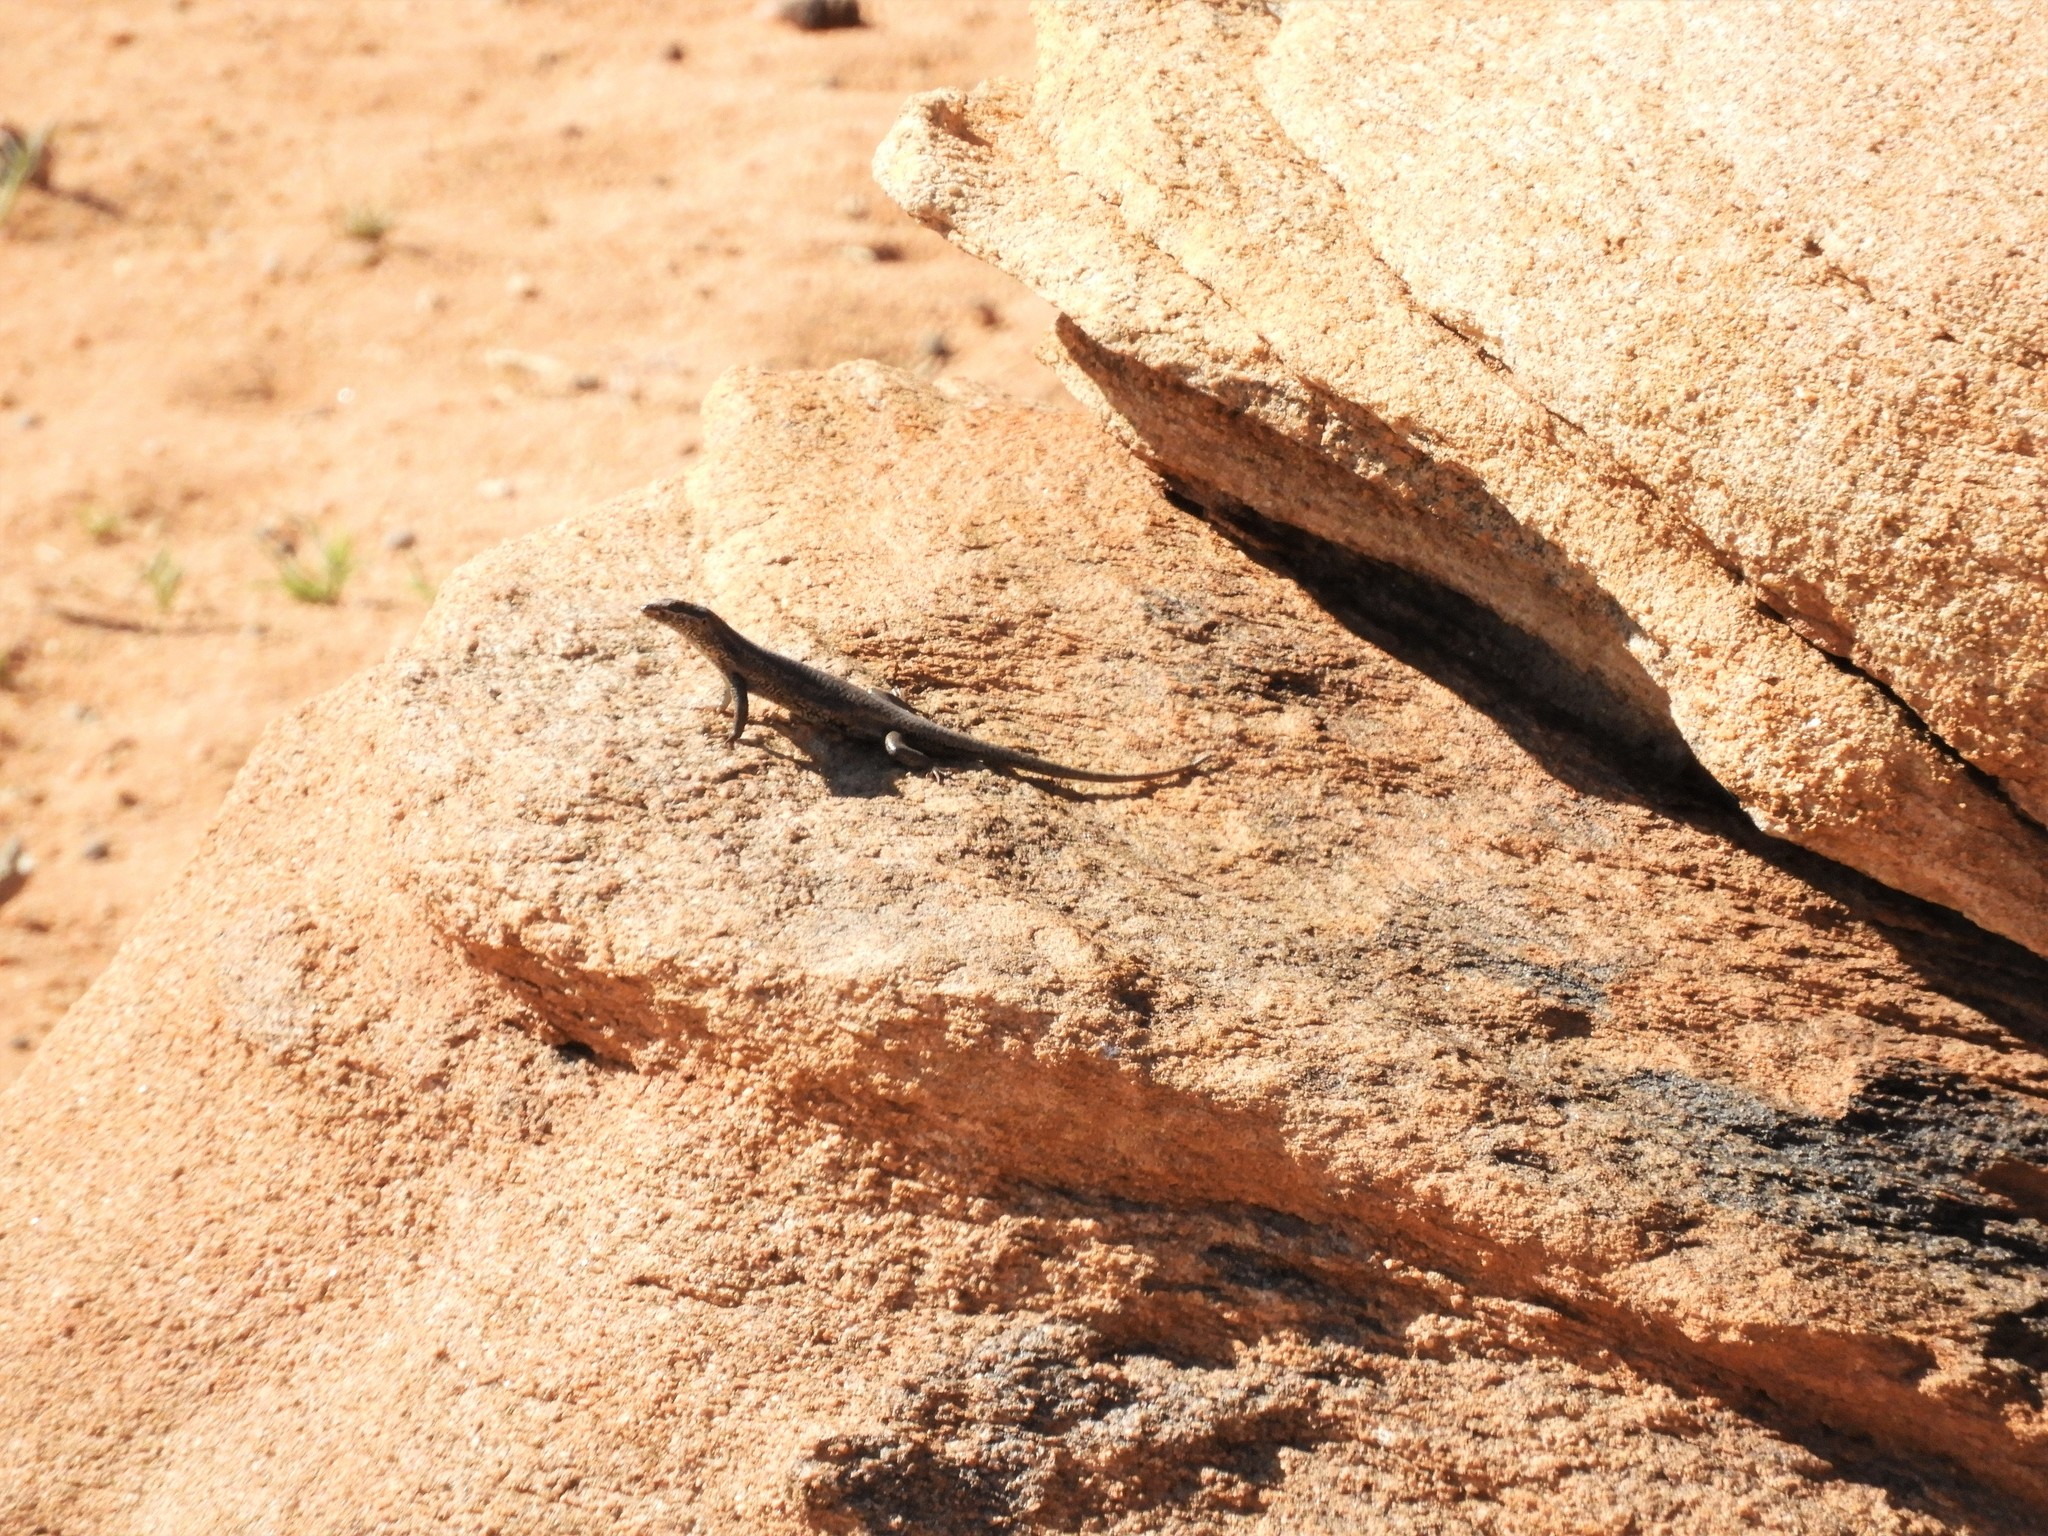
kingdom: Animalia
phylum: Chordata
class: Squamata
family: Scincidae
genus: Trachylepis
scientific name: Trachylepis sulcata
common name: Western rock skink
